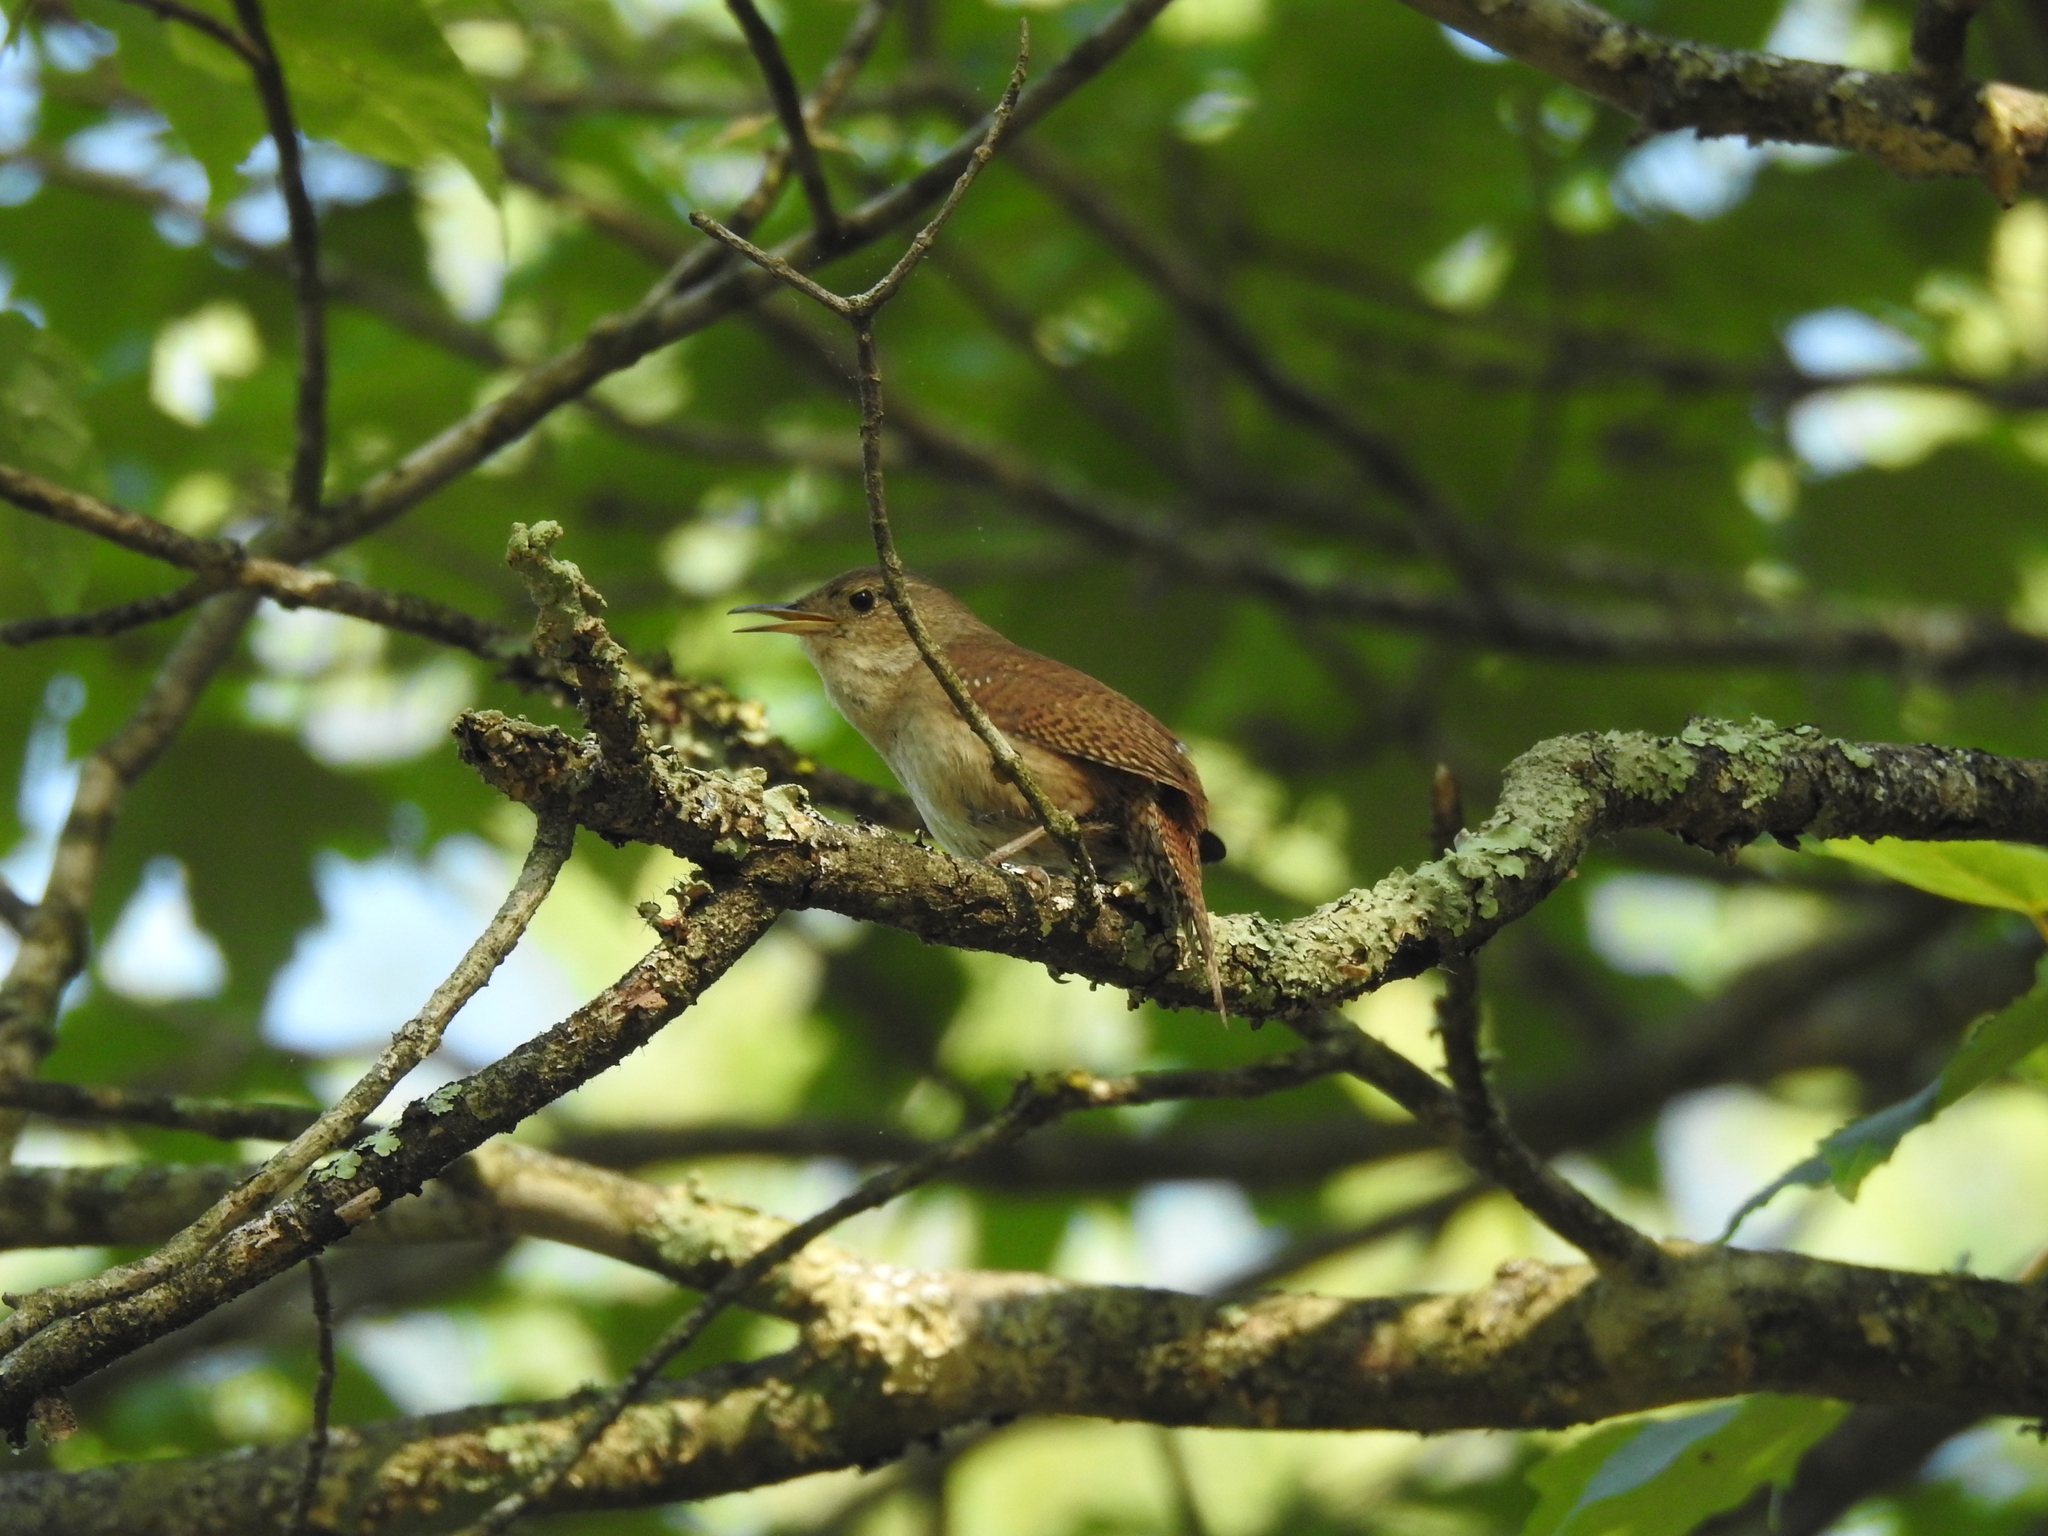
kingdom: Animalia
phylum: Chordata
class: Aves
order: Passeriformes
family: Troglodytidae
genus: Troglodytes
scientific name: Troglodytes aedon
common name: House wren
